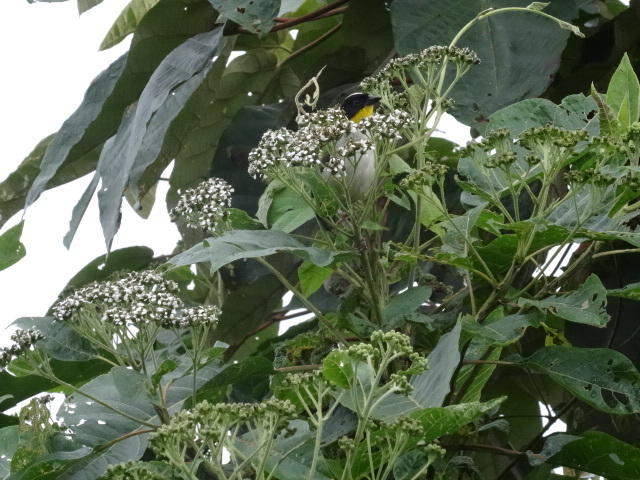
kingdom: Animalia
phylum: Chordata
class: Aves
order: Passeriformes
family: Passerellidae
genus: Atlapetes
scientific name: Atlapetes albinucha
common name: White-naped brush-finch
